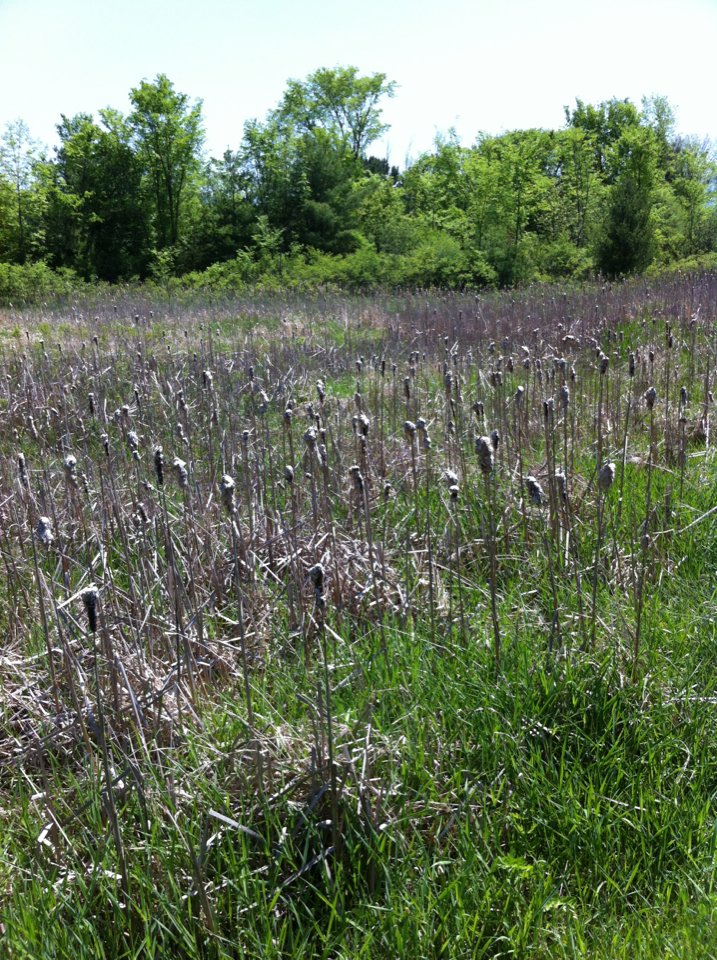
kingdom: Plantae
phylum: Tracheophyta
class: Liliopsida
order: Poales
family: Typhaceae
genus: Typha
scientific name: Typha
